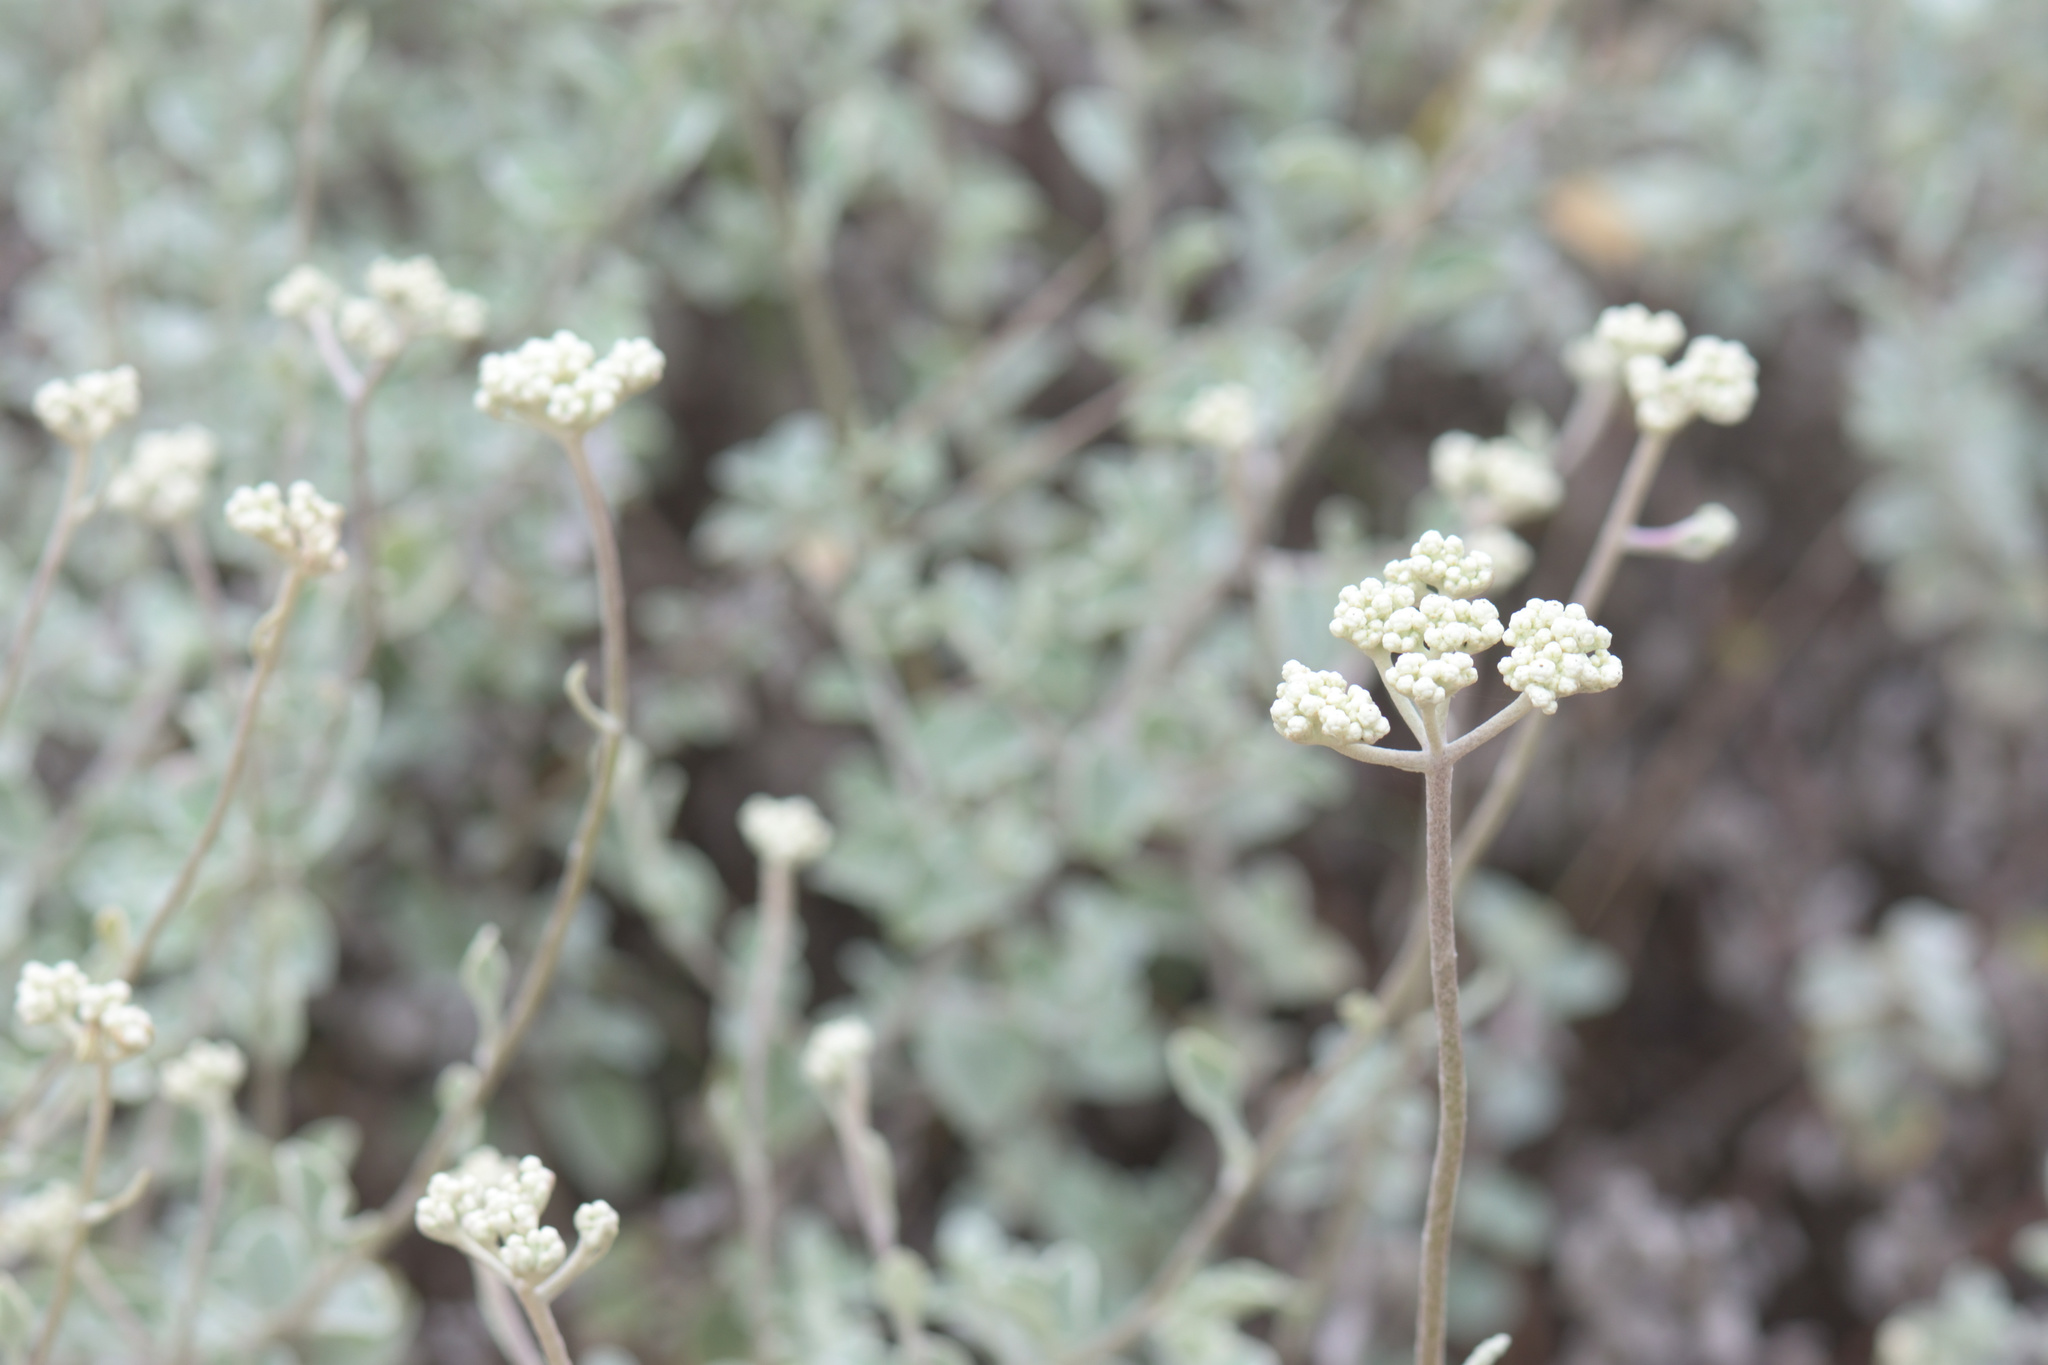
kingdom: Plantae
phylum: Tracheophyta
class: Magnoliopsida
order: Asterales
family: Asteraceae
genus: Helichrysum
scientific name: Helichrysum petiolare
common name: Licorice-plant
